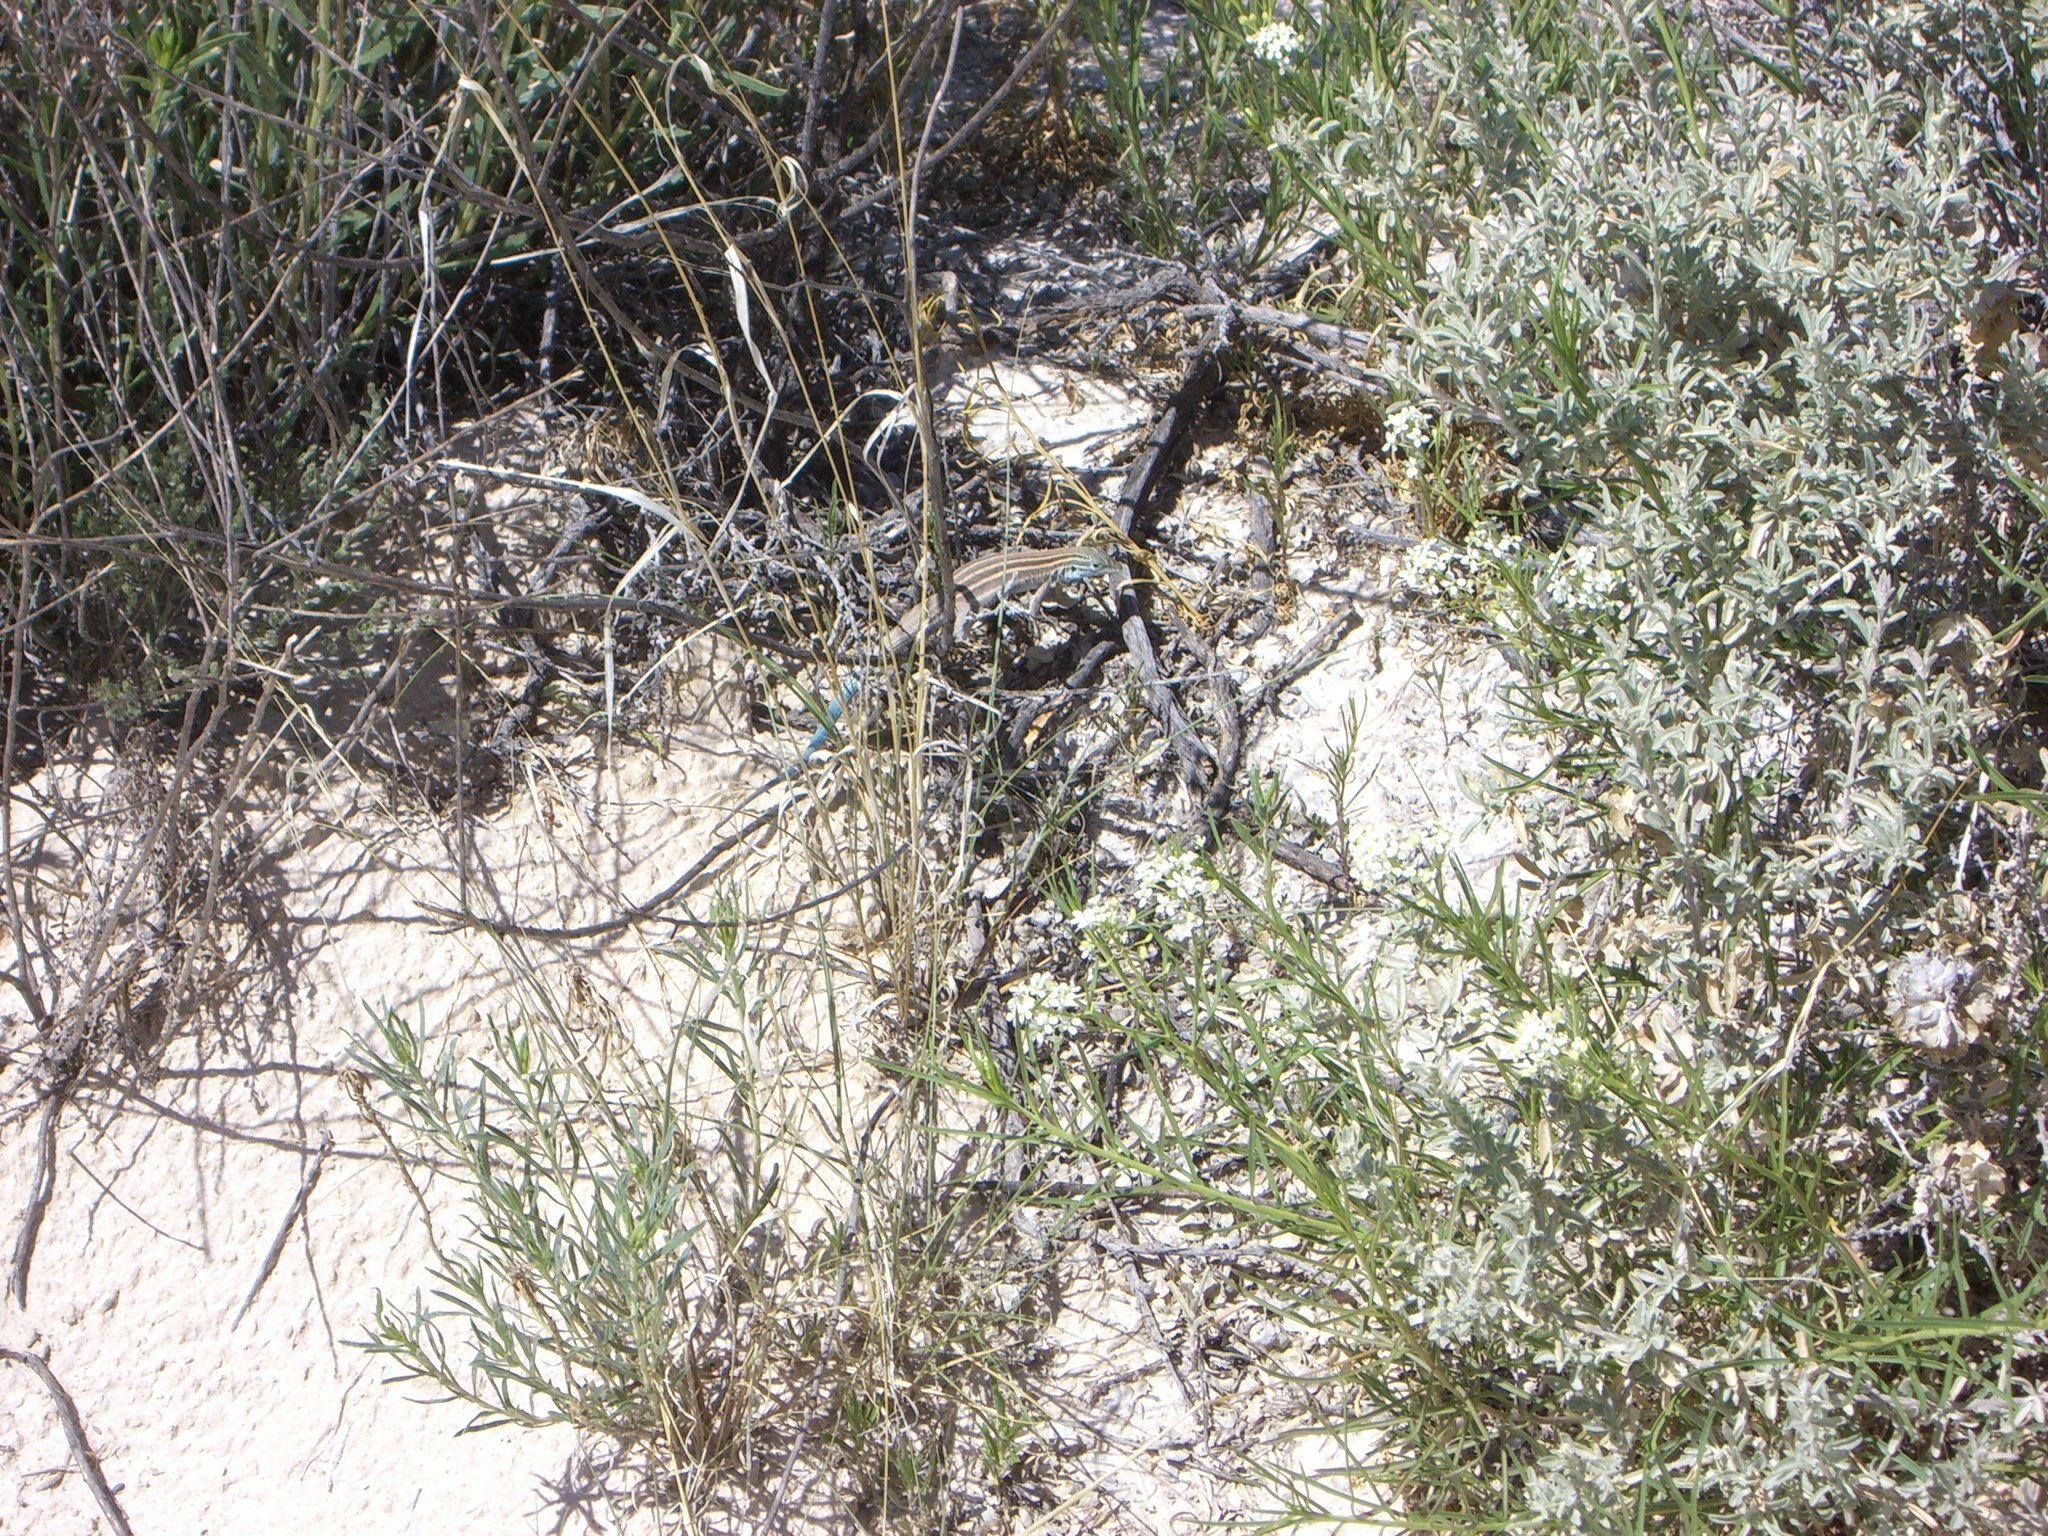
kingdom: Animalia
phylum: Chordata
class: Squamata
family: Teiidae
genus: Aspidoscelis
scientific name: Aspidoscelis inornatus
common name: Little striped whiptail
